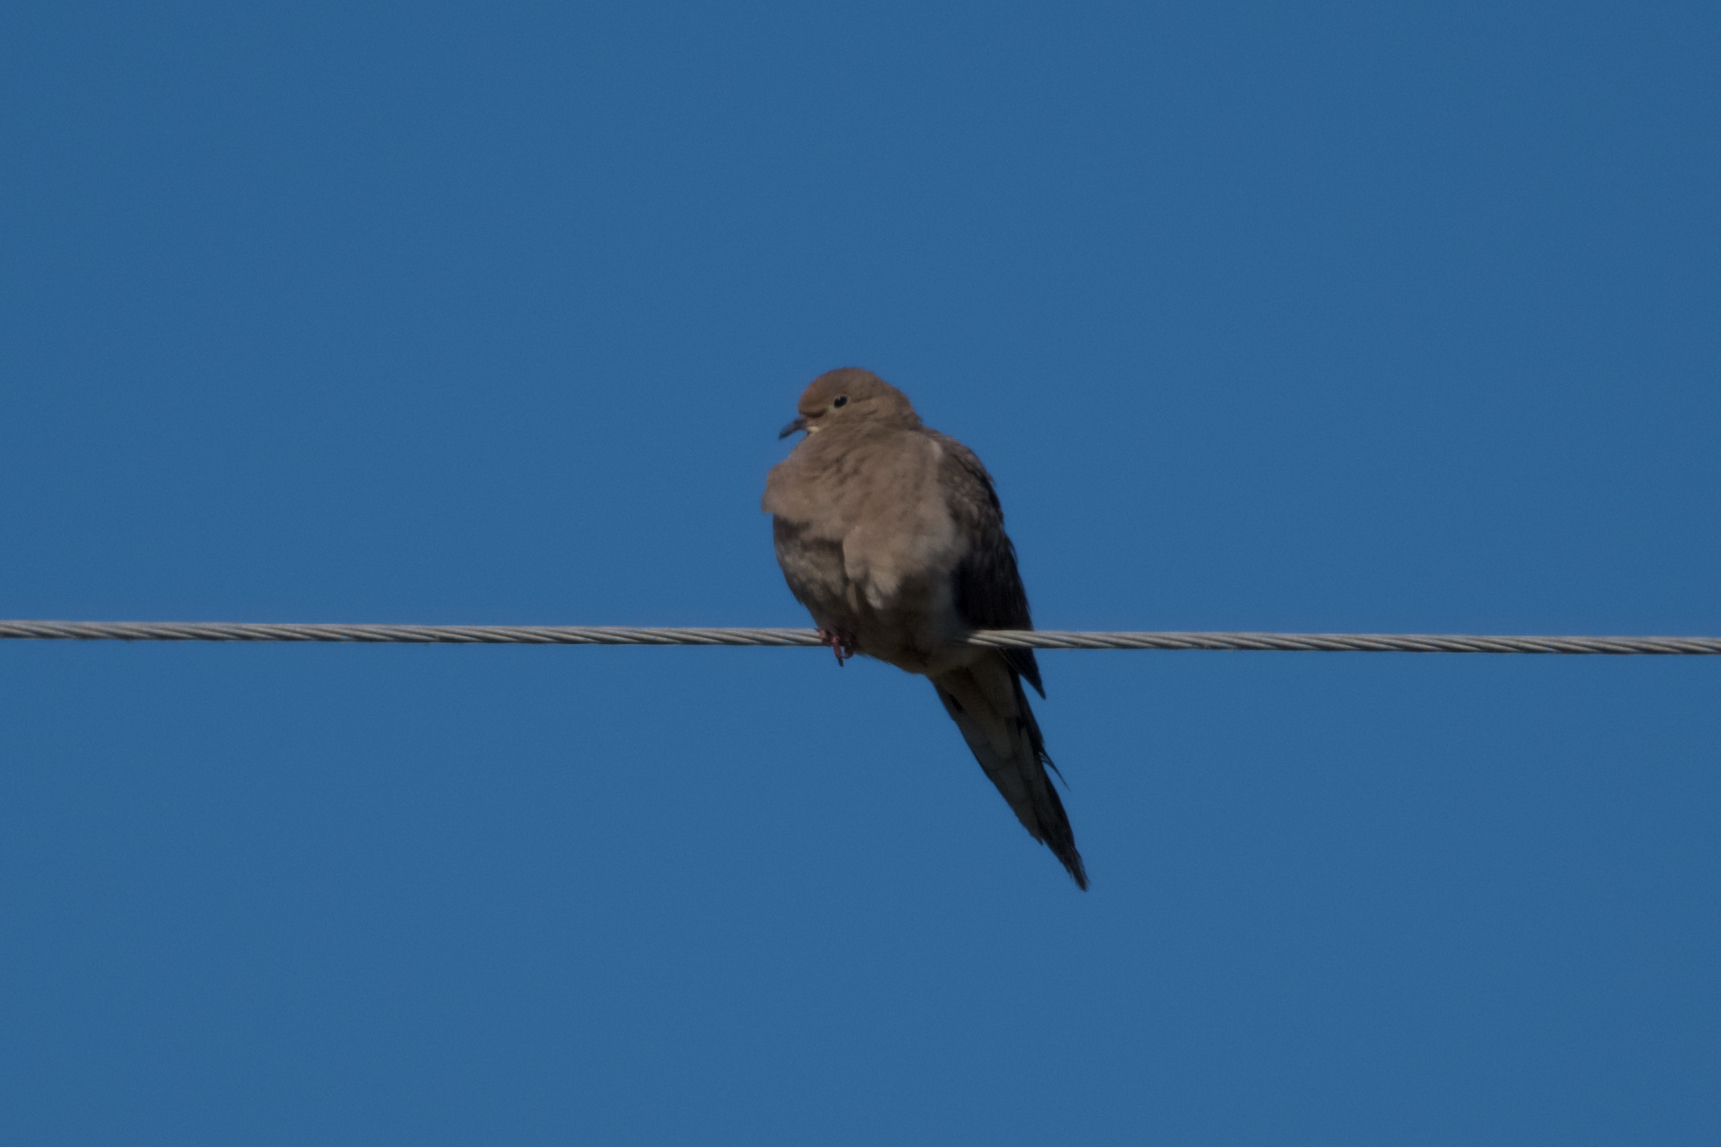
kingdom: Animalia
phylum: Chordata
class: Aves
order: Columbiformes
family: Columbidae
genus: Zenaida
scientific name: Zenaida macroura
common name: Mourning dove
